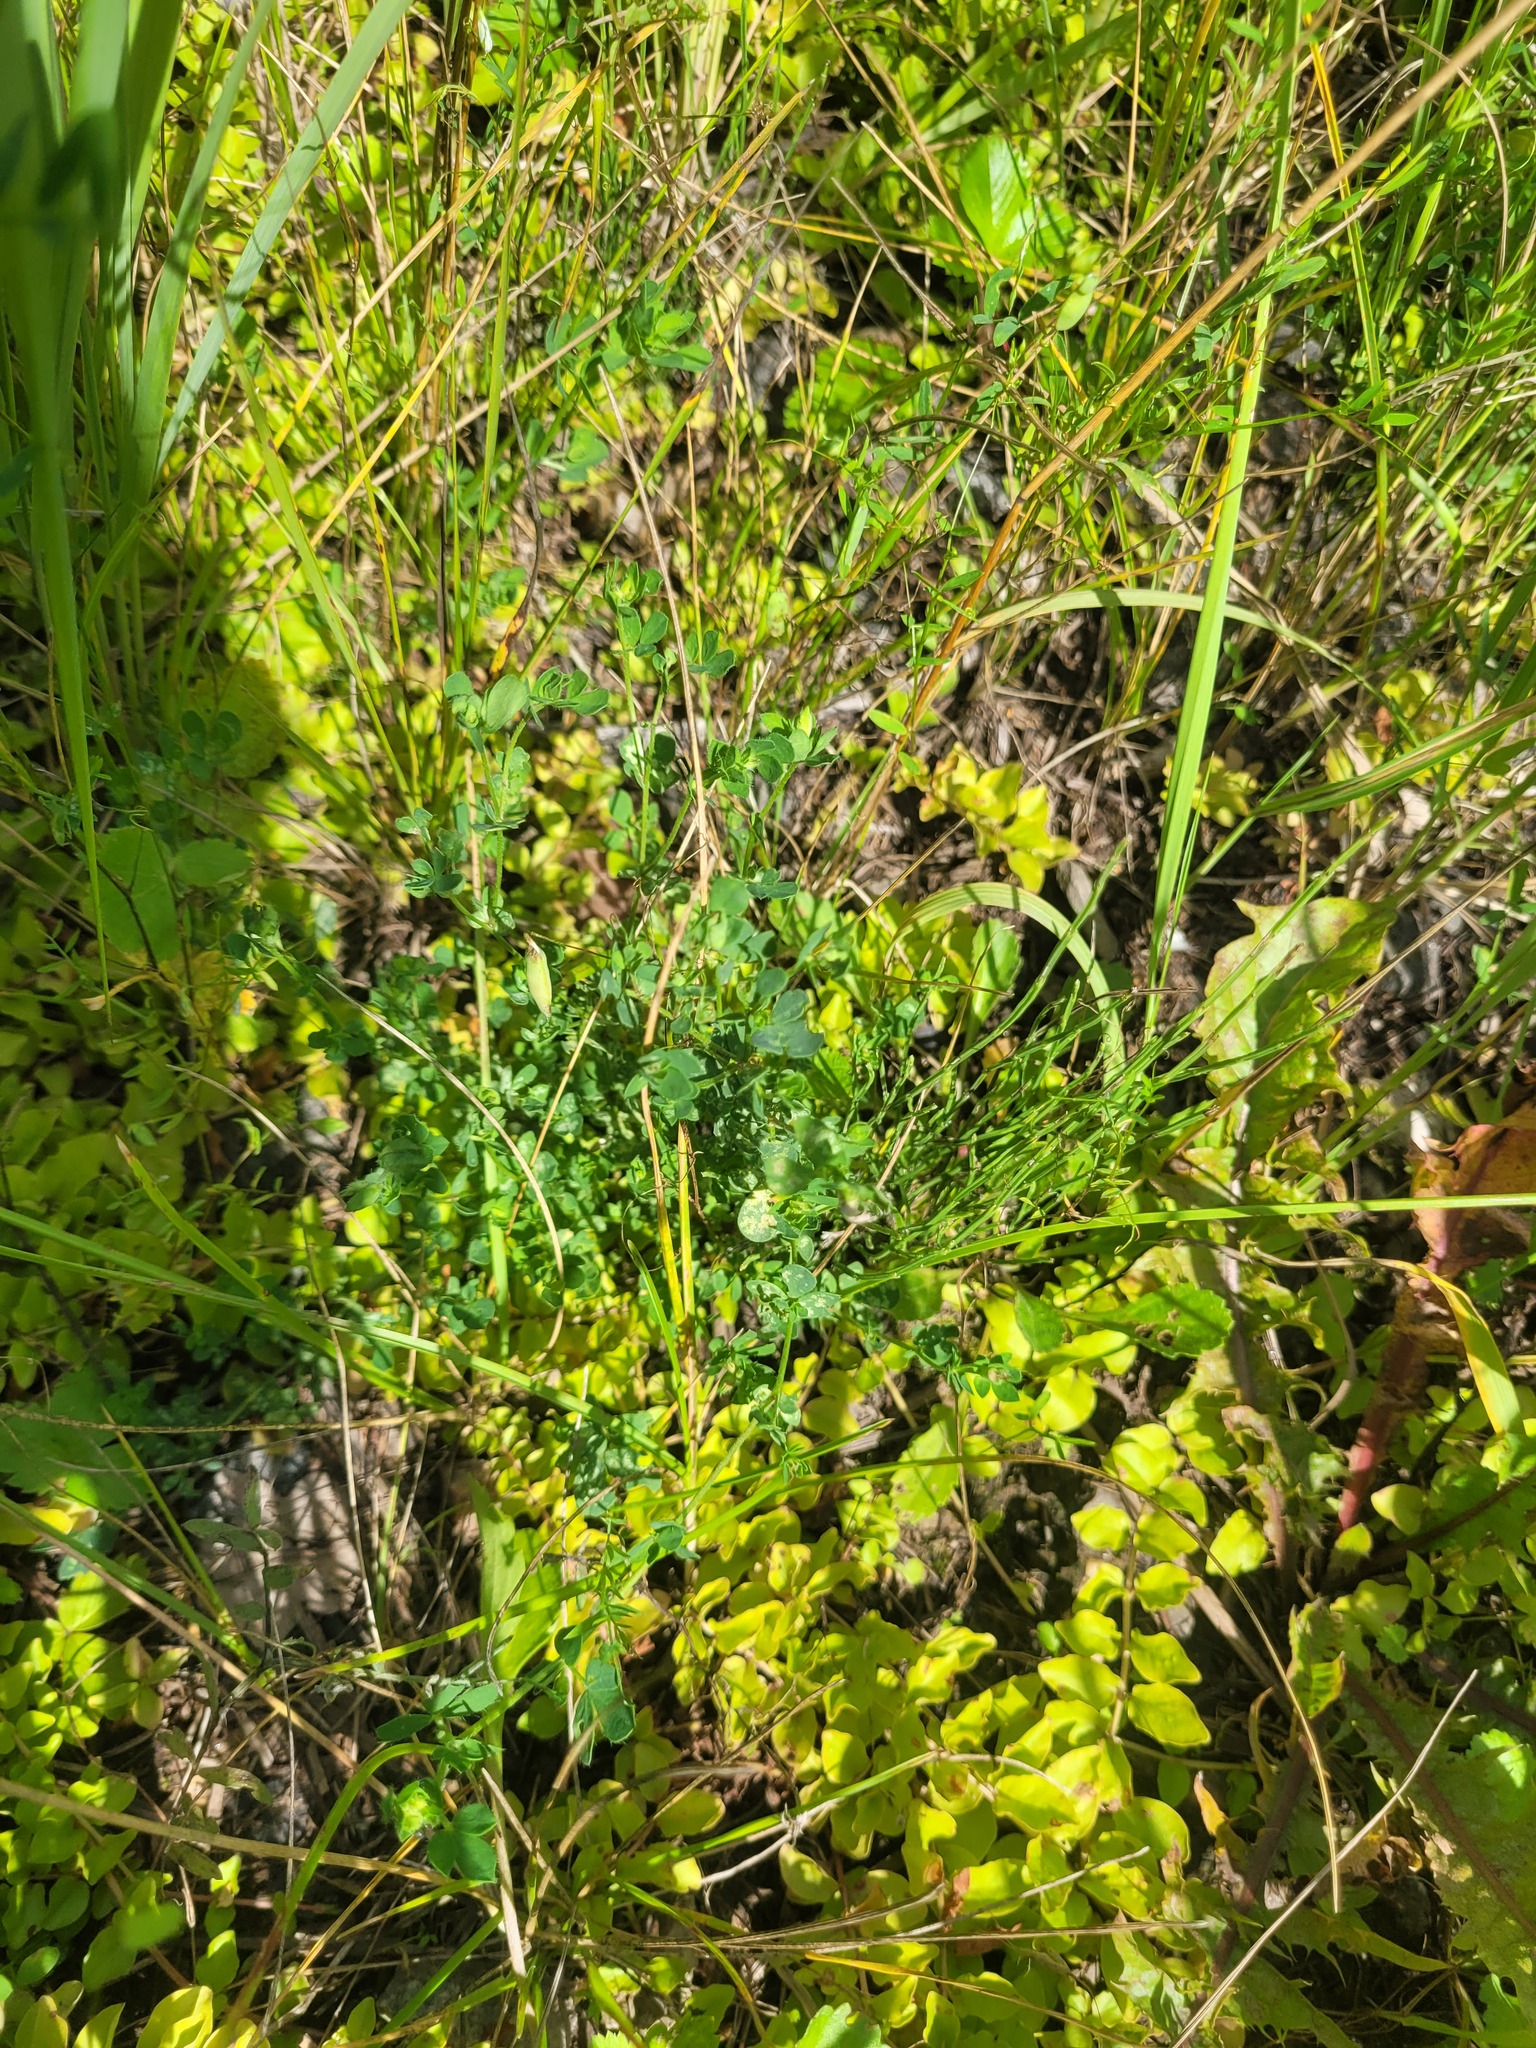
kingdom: Plantae
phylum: Tracheophyta
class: Magnoliopsida
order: Fabales
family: Fabaceae
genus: Lotus
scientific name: Lotus corniculatus
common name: Common bird's-foot-trefoil
